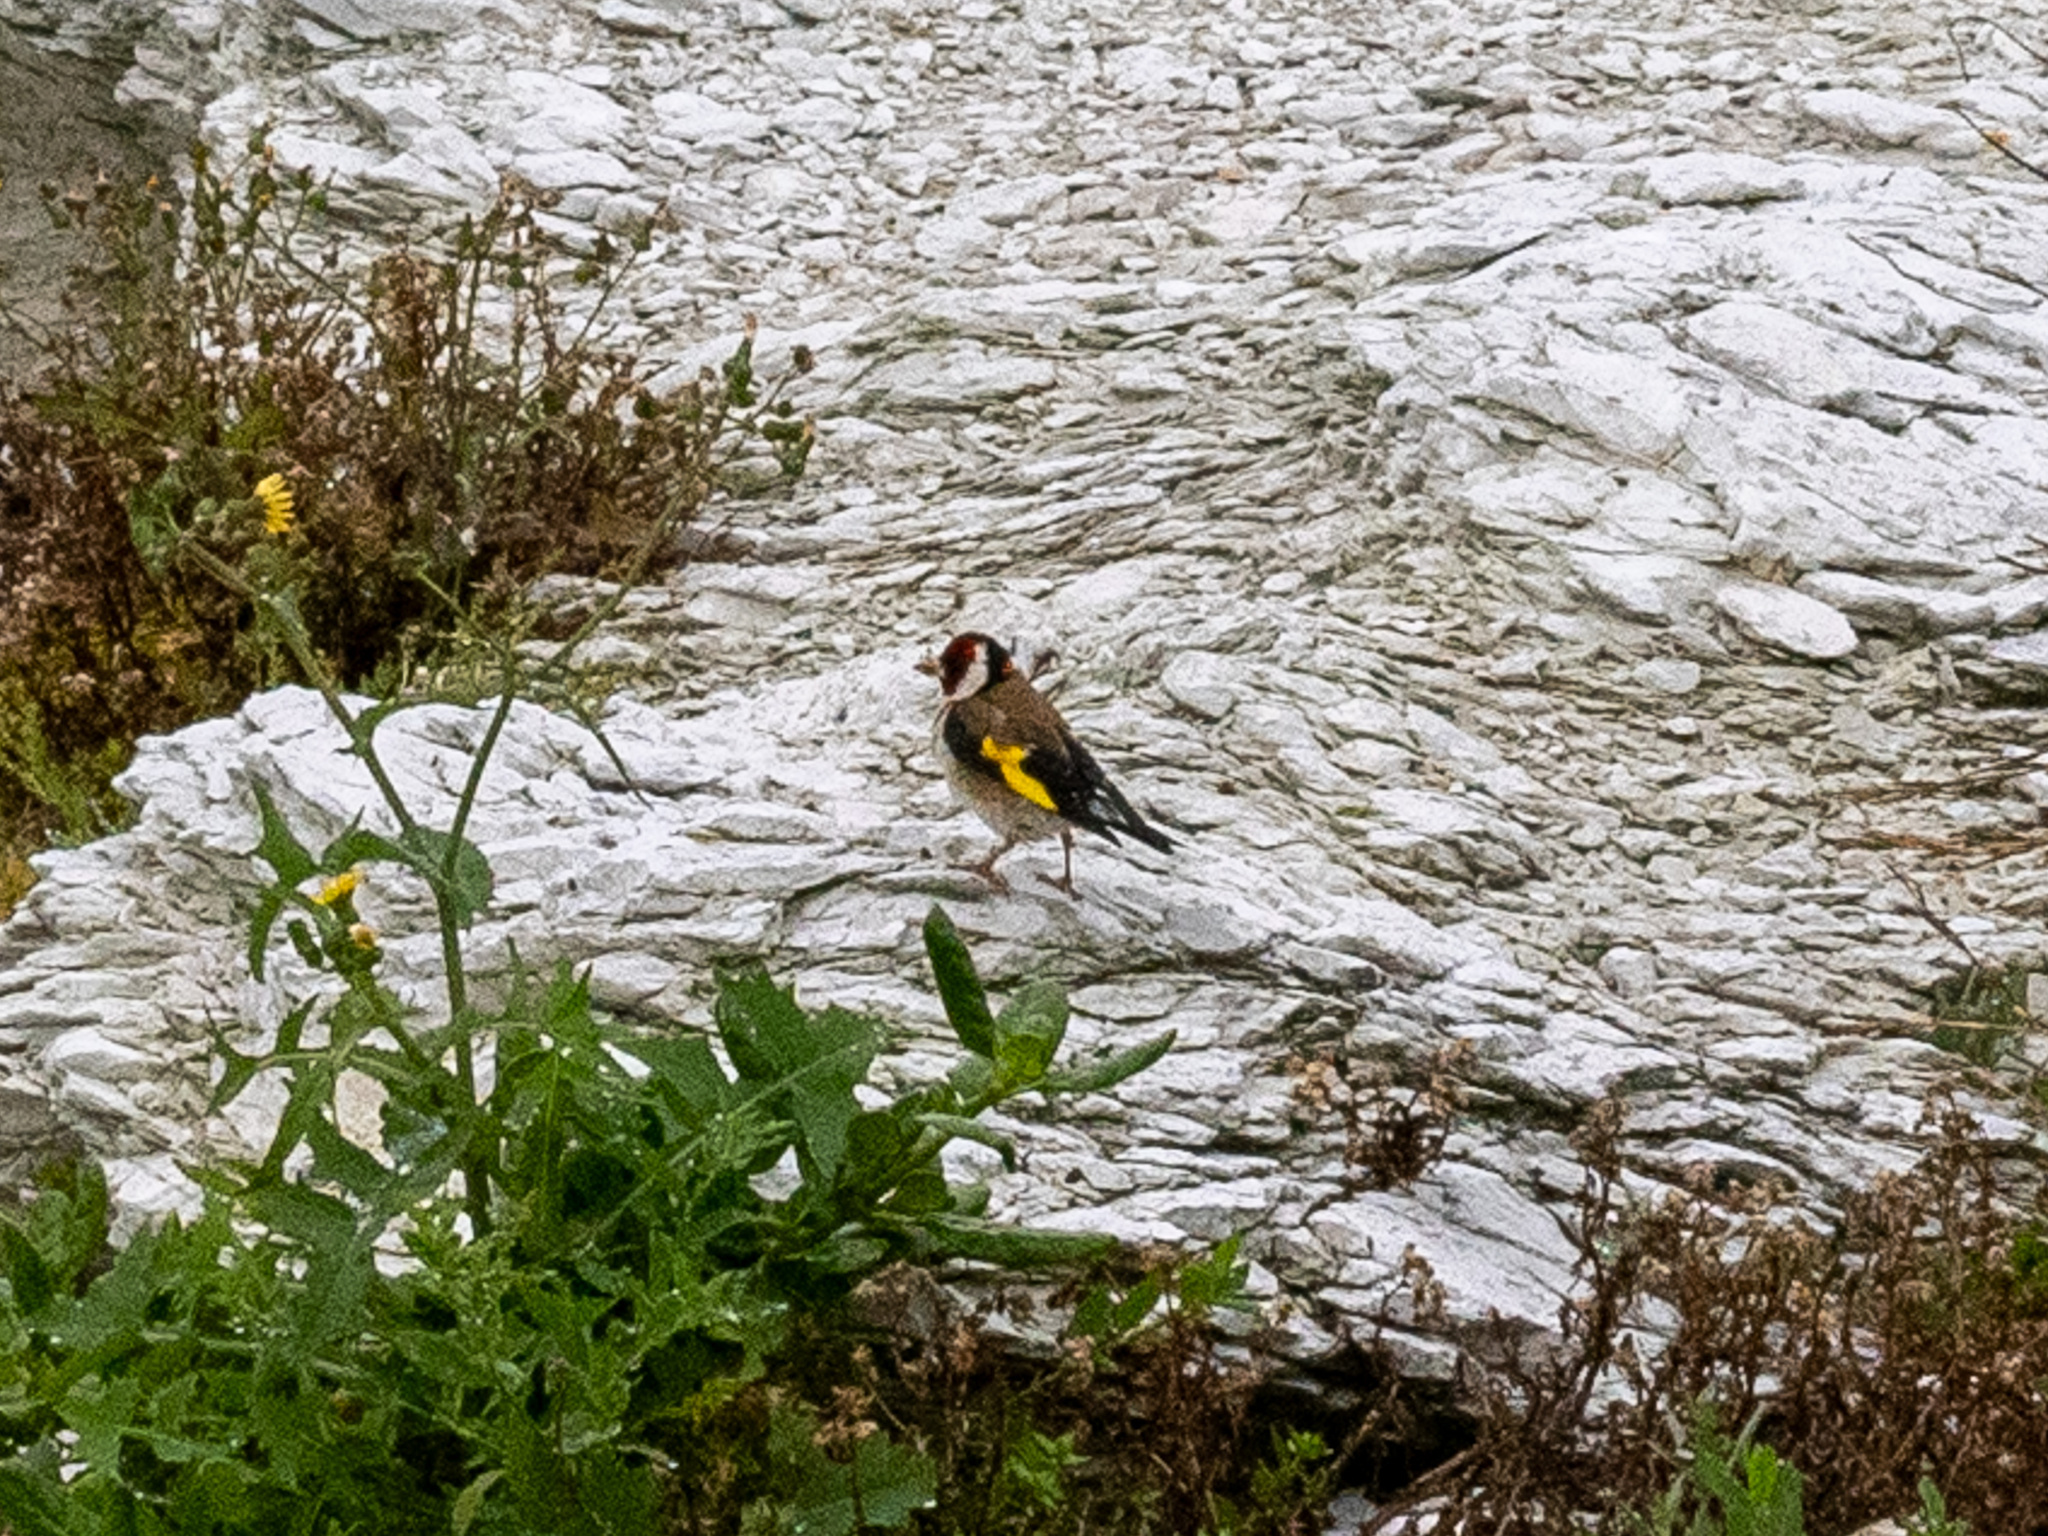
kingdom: Animalia
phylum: Chordata
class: Aves
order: Passeriformes
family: Fringillidae
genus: Carduelis
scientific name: Carduelis carduelis
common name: European goldfinch
